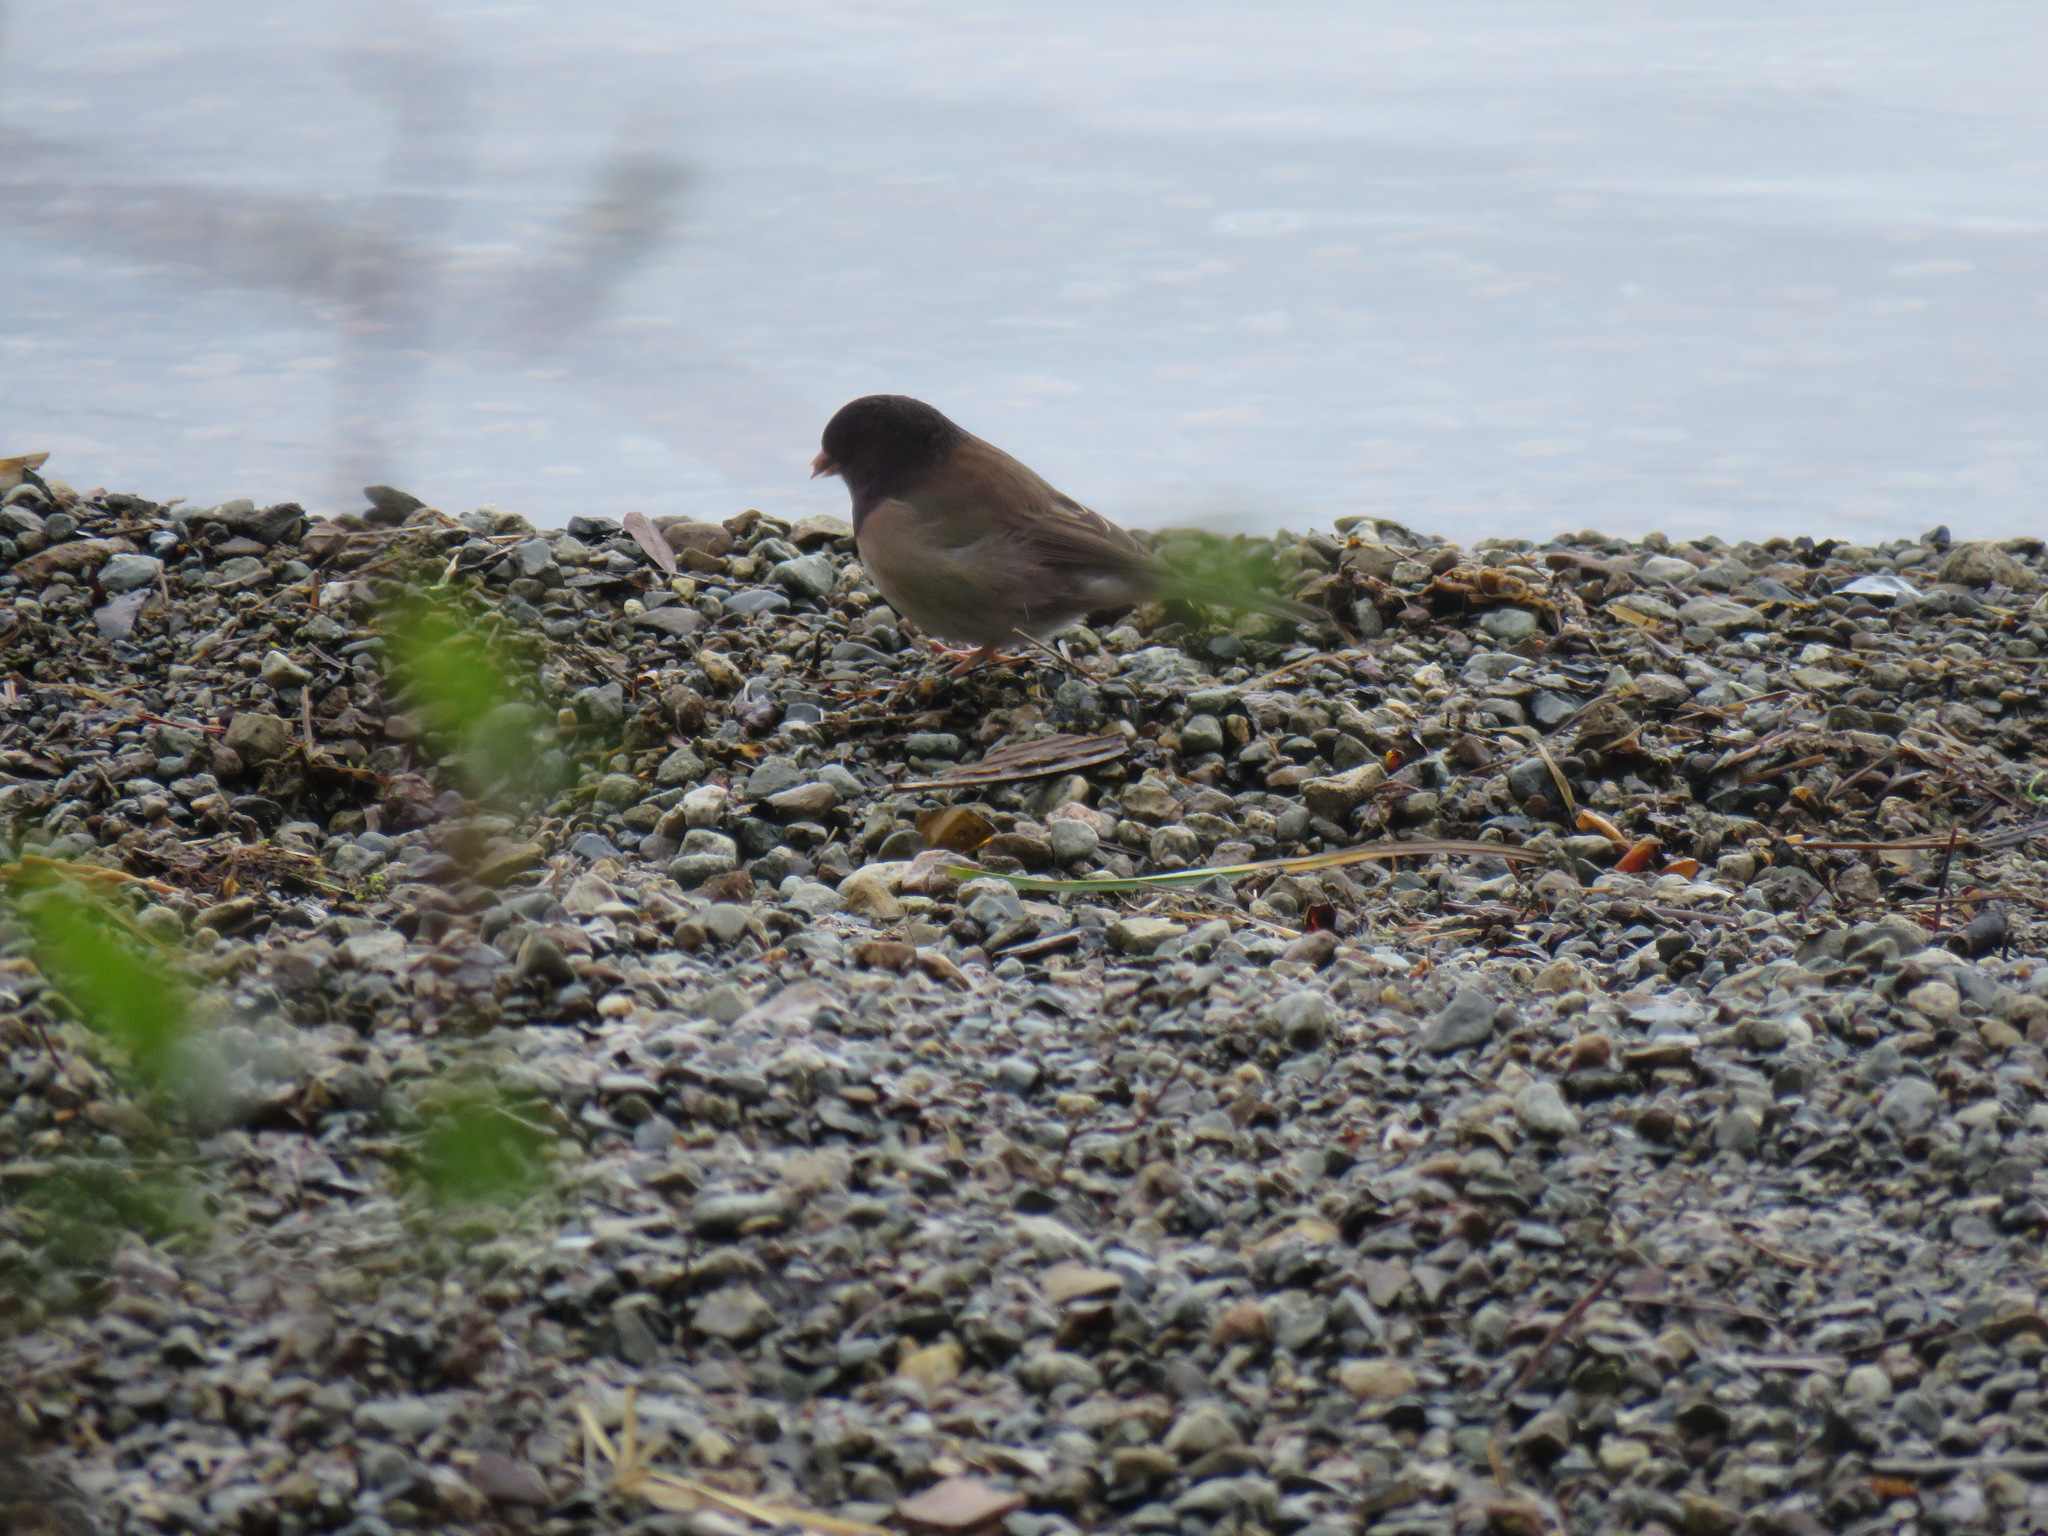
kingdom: Animalia
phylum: Chordata
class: Aves
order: Passeriformes
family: Passerellidae
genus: Junco
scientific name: Junco hyemalis
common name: Dark-eyed junco
